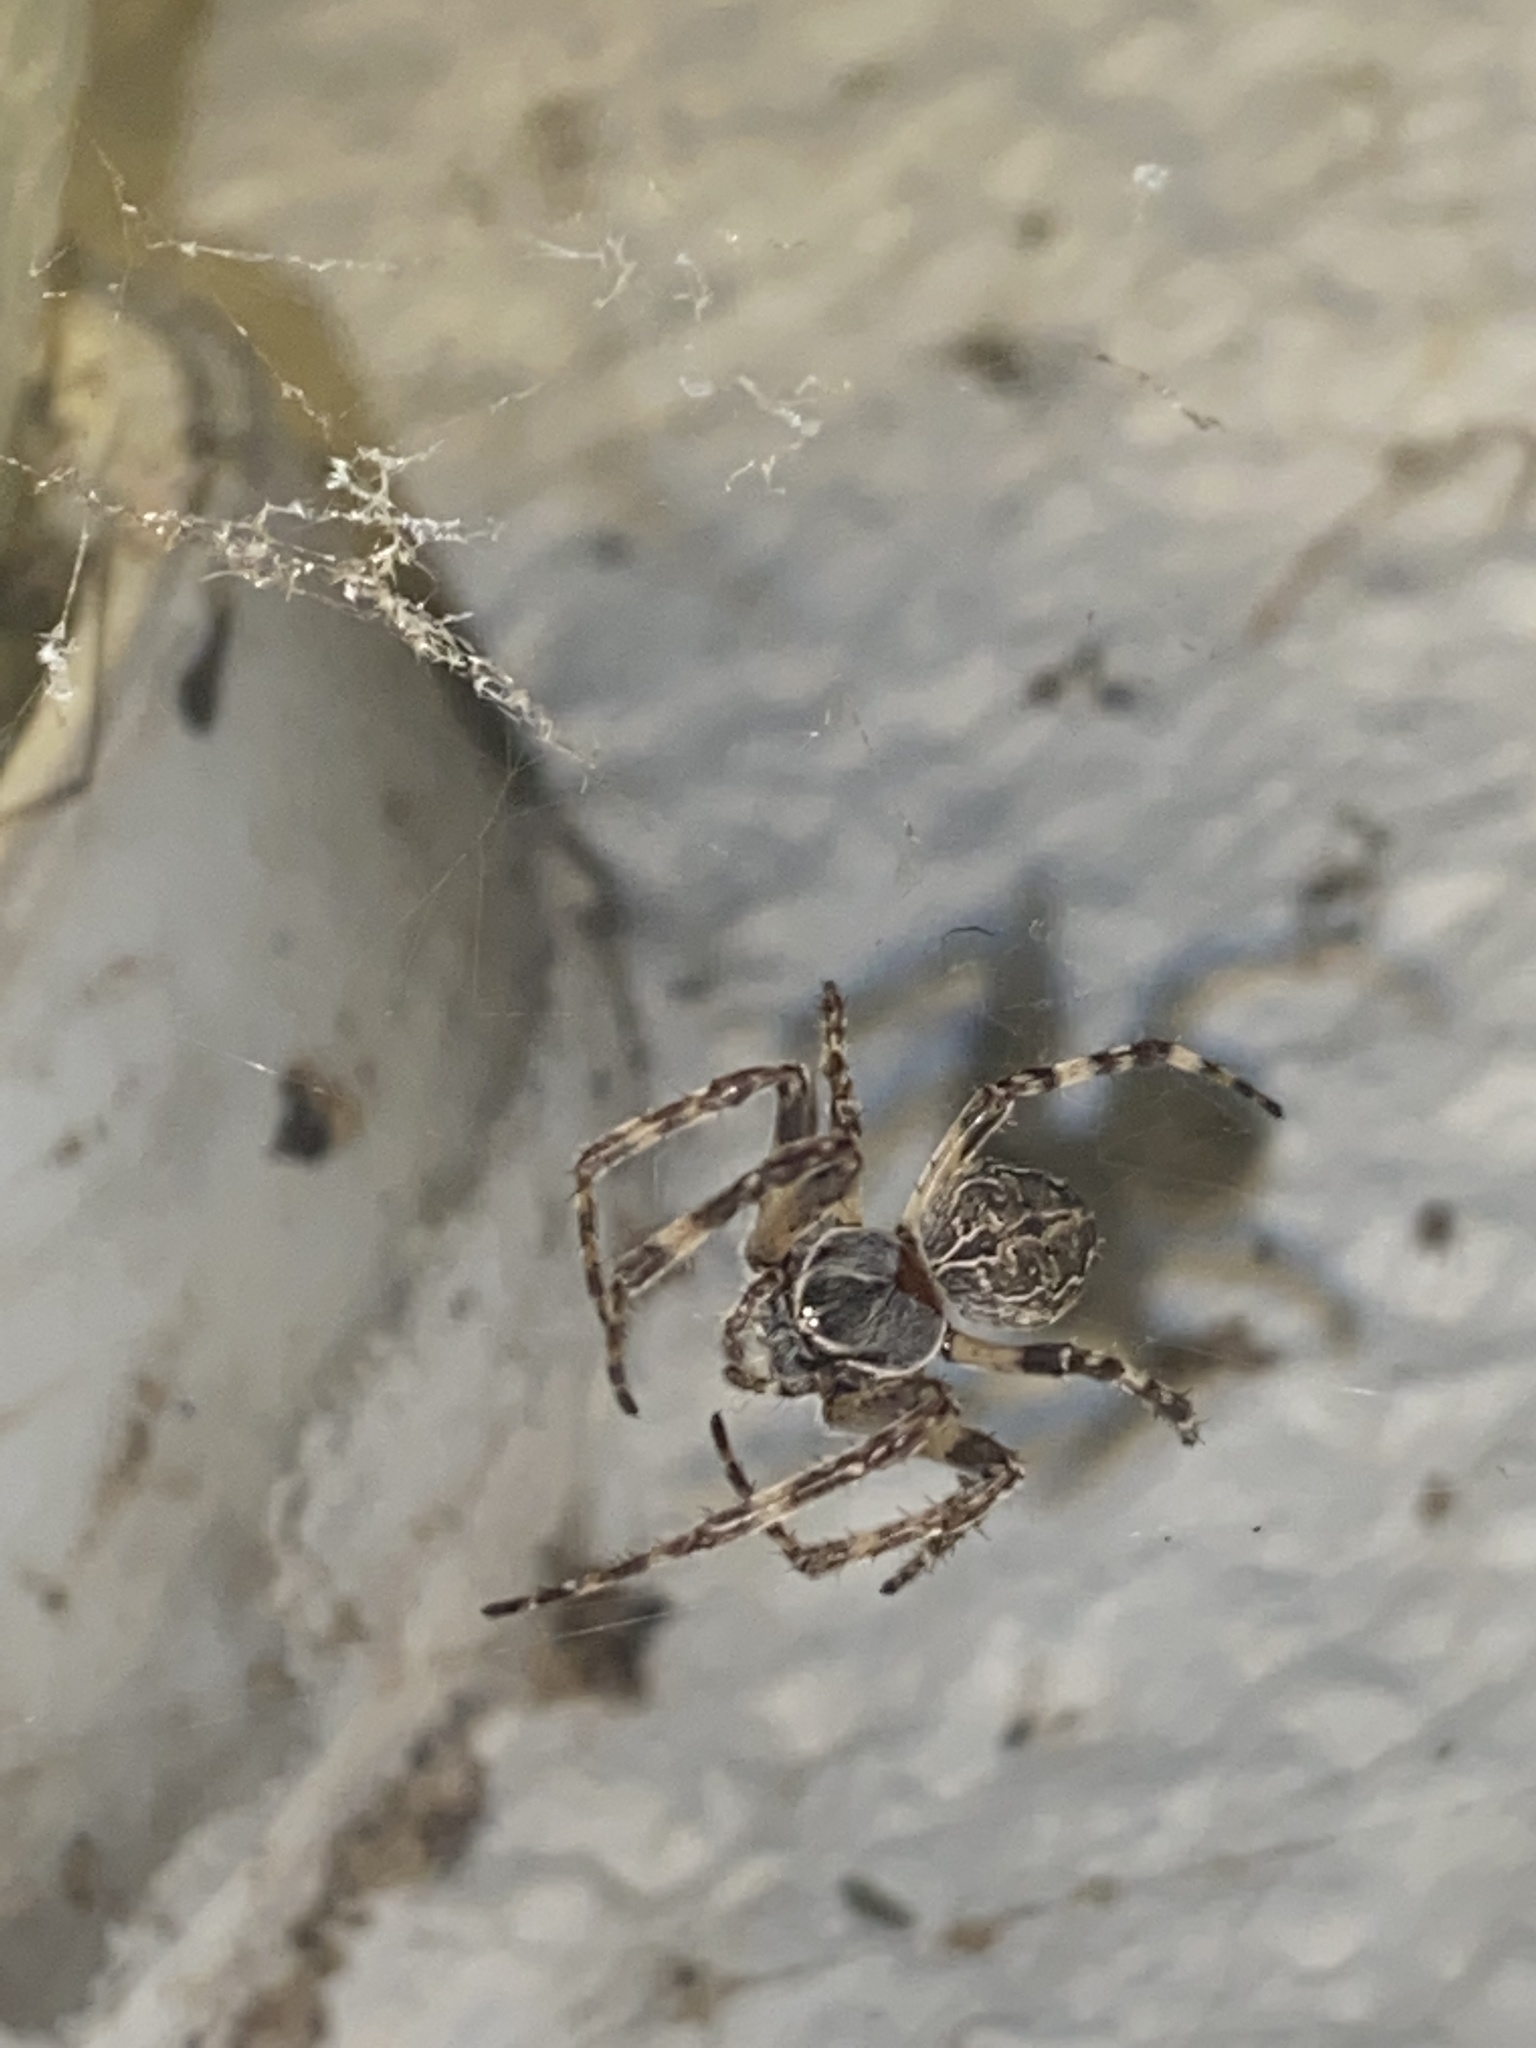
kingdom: Animalia
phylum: Arthropoda
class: Arachnida
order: Araneae
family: Araneidae
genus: Larinioides
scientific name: Larinioides sclopetarius
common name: Bridge orbweaver
